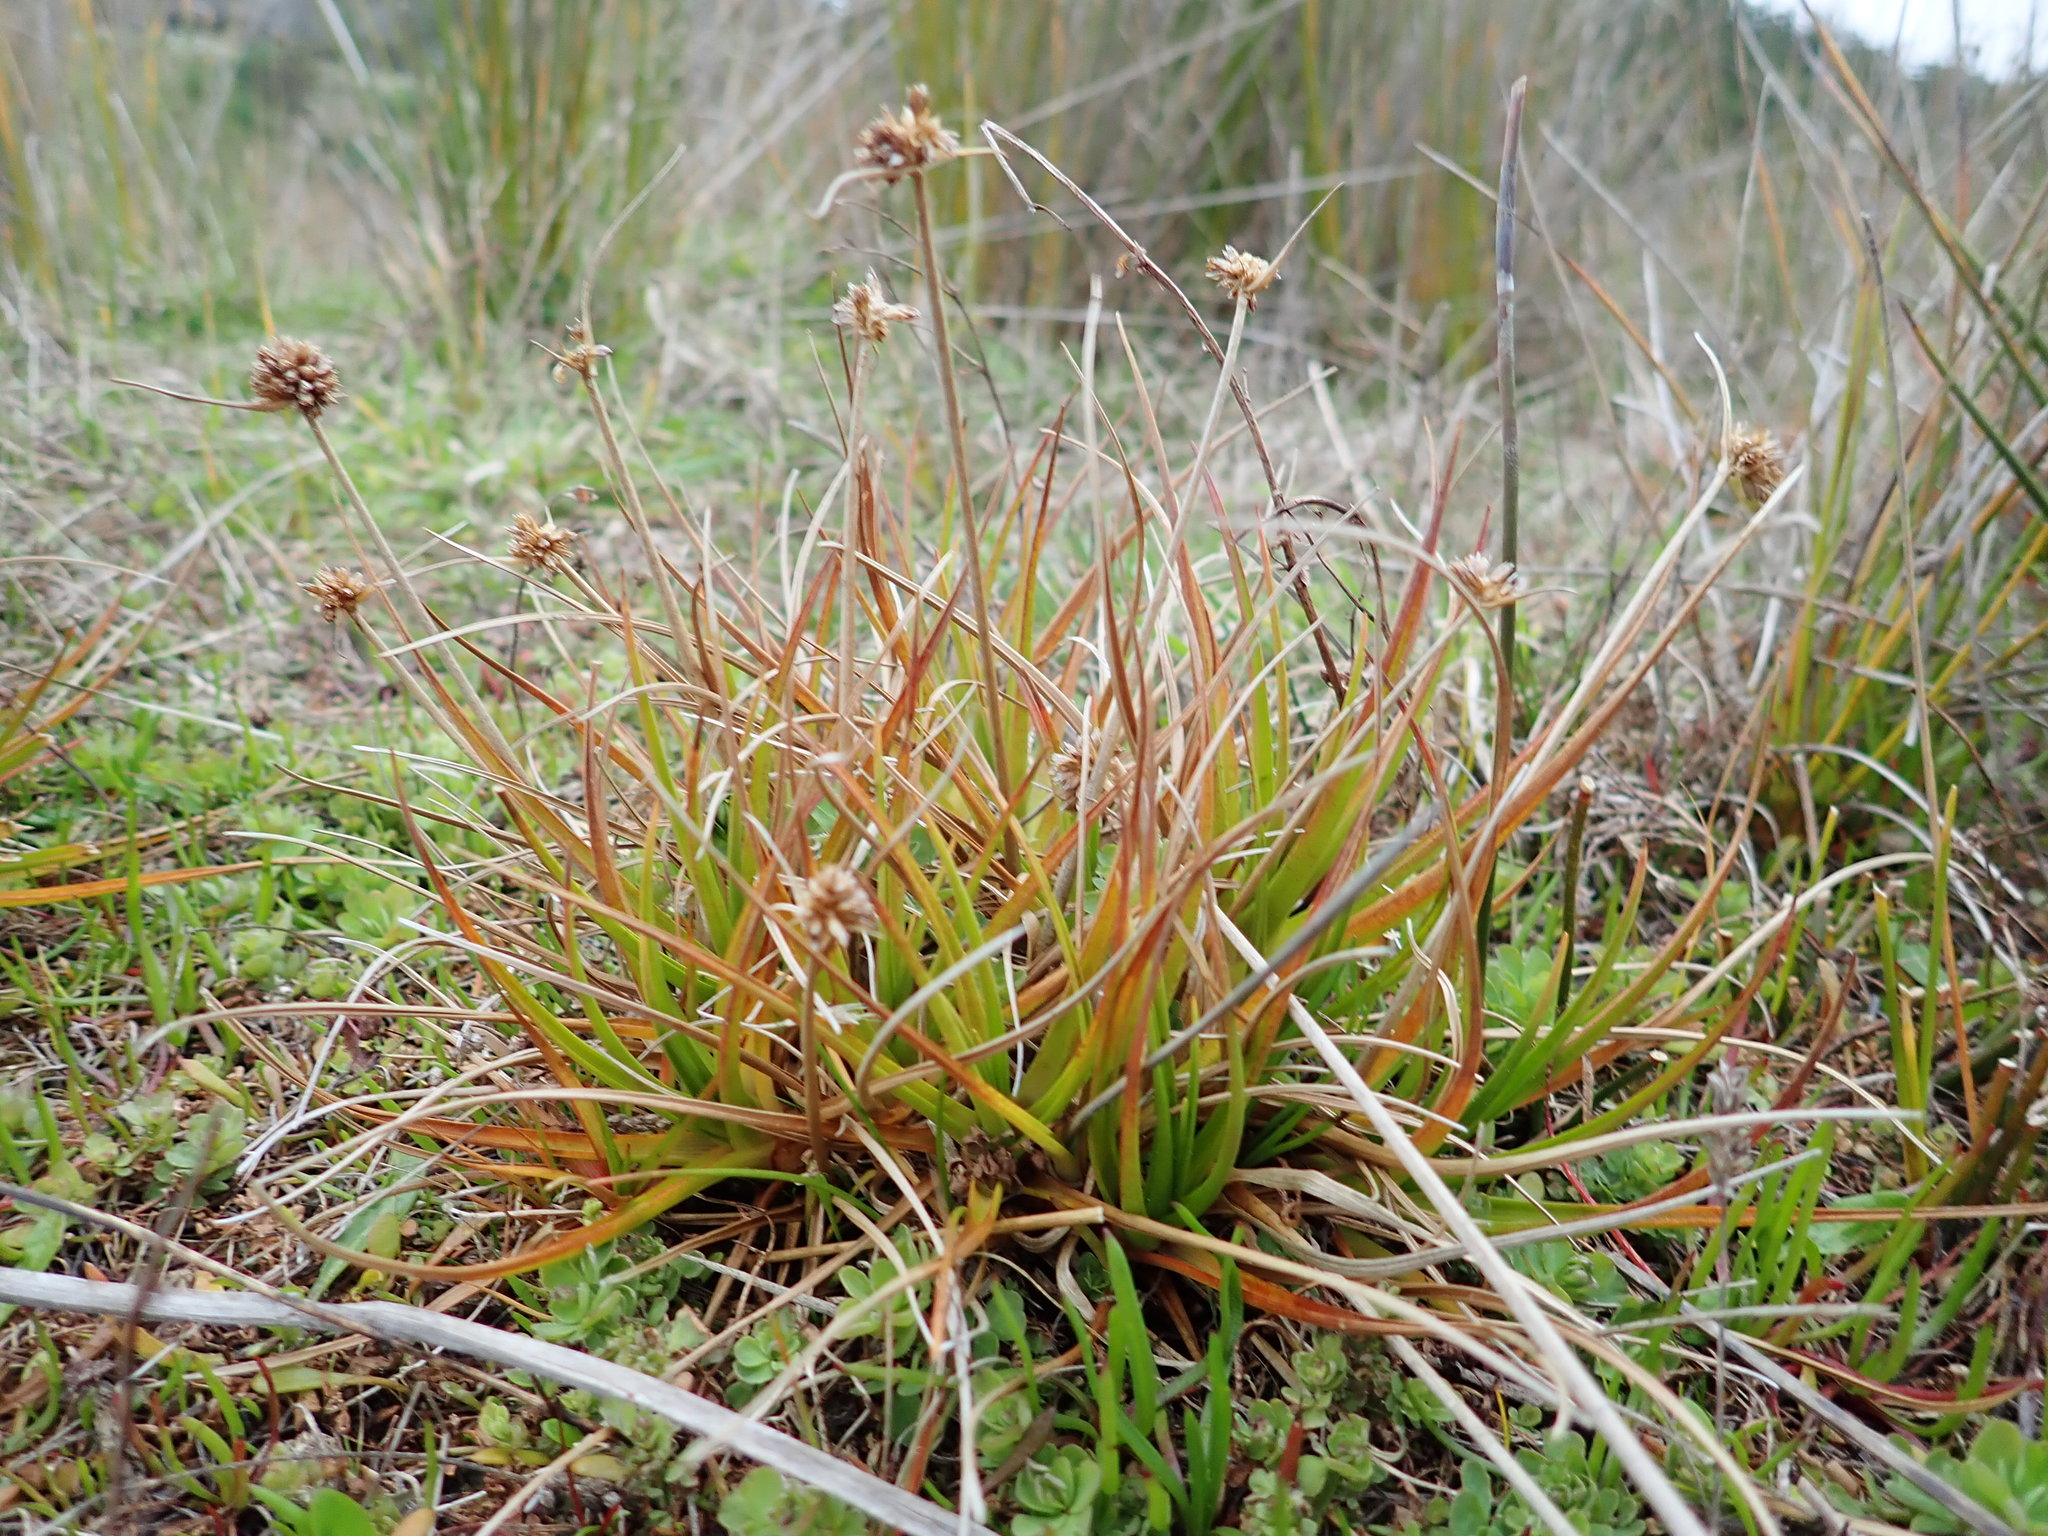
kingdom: Plantae
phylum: Tracheophyta
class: Liliopsida
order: Poales
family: Juncaceae
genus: Juncus
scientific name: Juncus caespiticius
